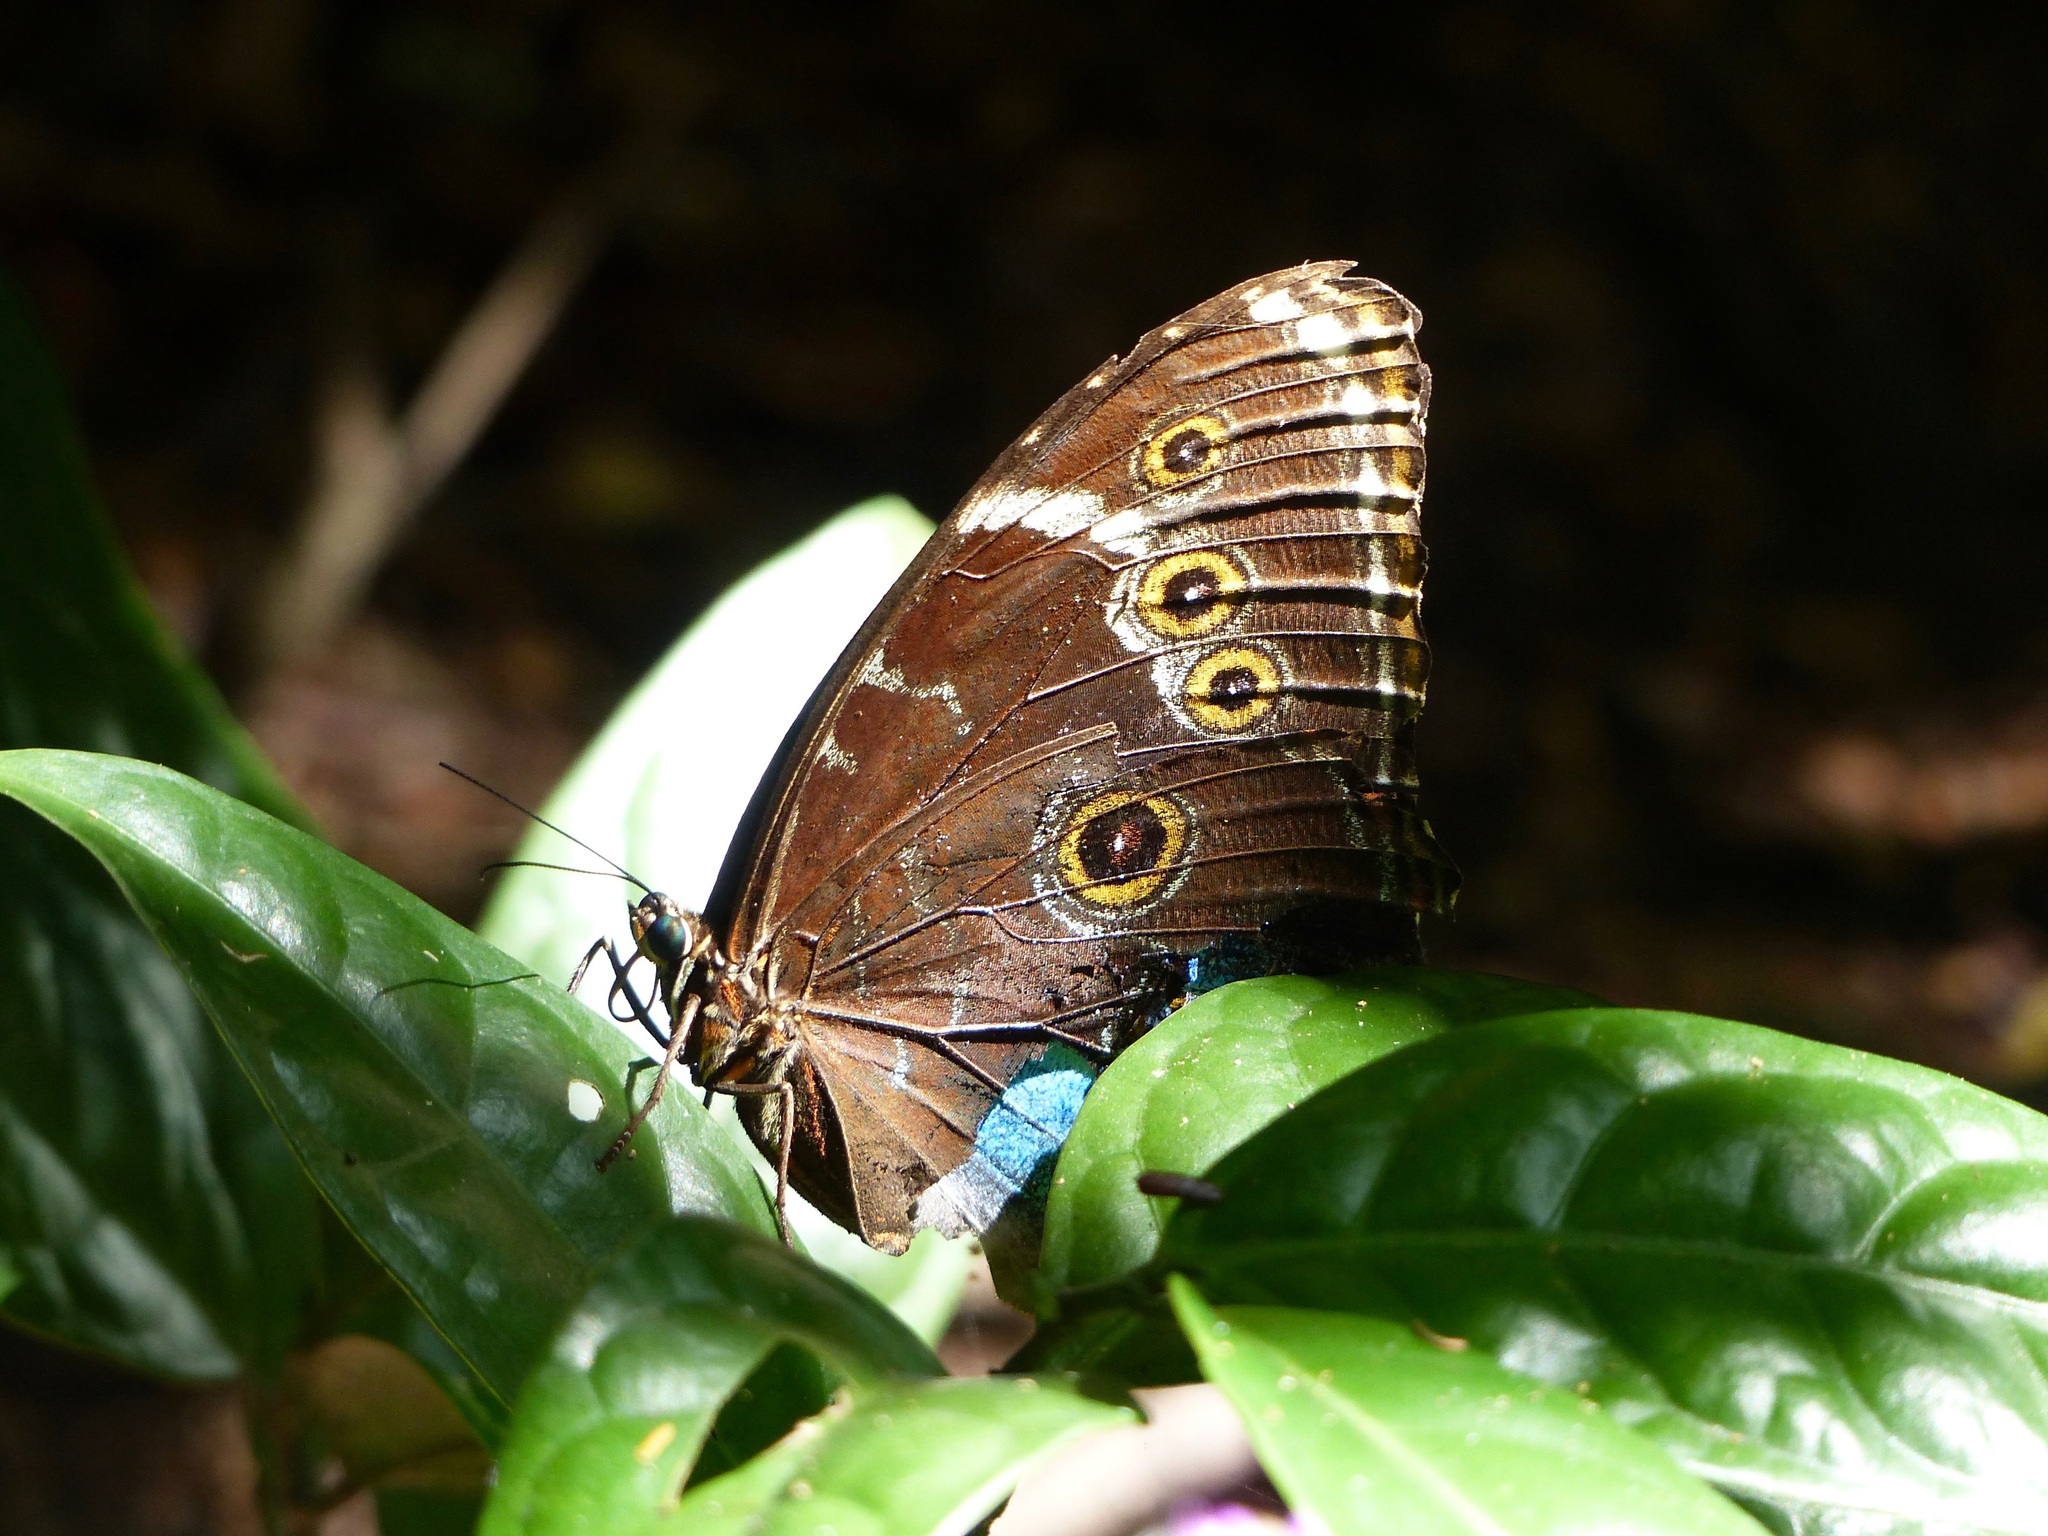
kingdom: Animalia
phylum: Arthropoda
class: Insecta
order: Lepidoptera
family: Nymphalidae
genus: Morpho
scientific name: Morpho helenor
